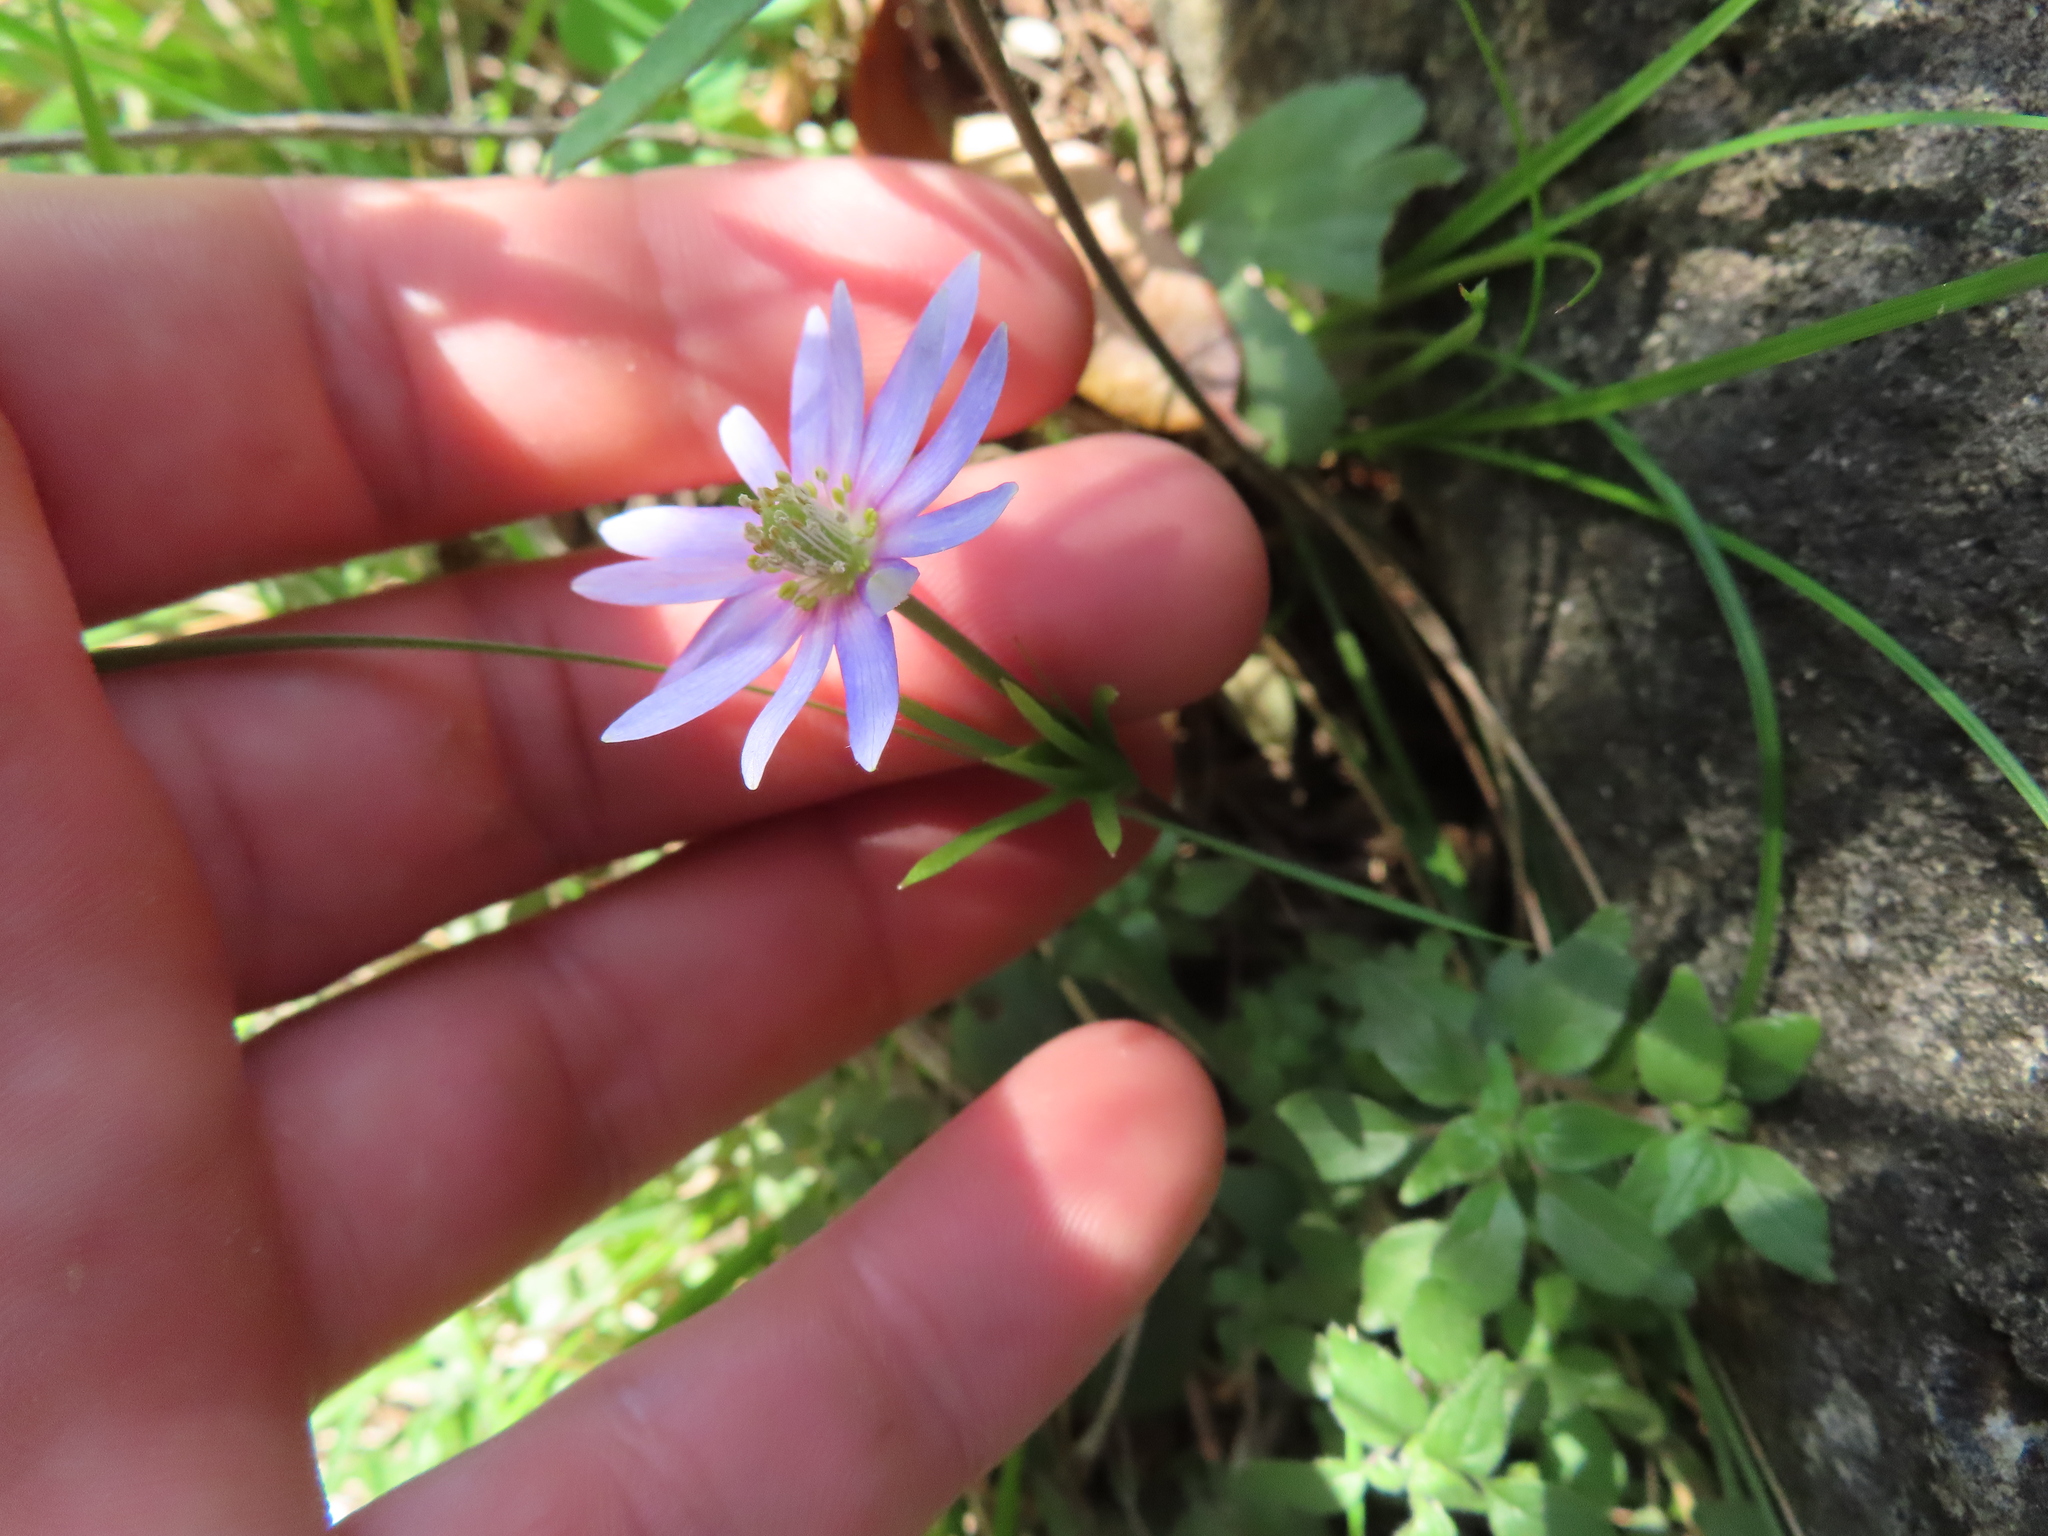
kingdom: Plantae
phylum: Tracheophyta
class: Magnoliopsida
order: Ranunculales
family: Ranunculaceae
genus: Anemone
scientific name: Anemone berlandieri
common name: Ten-petal anemone
